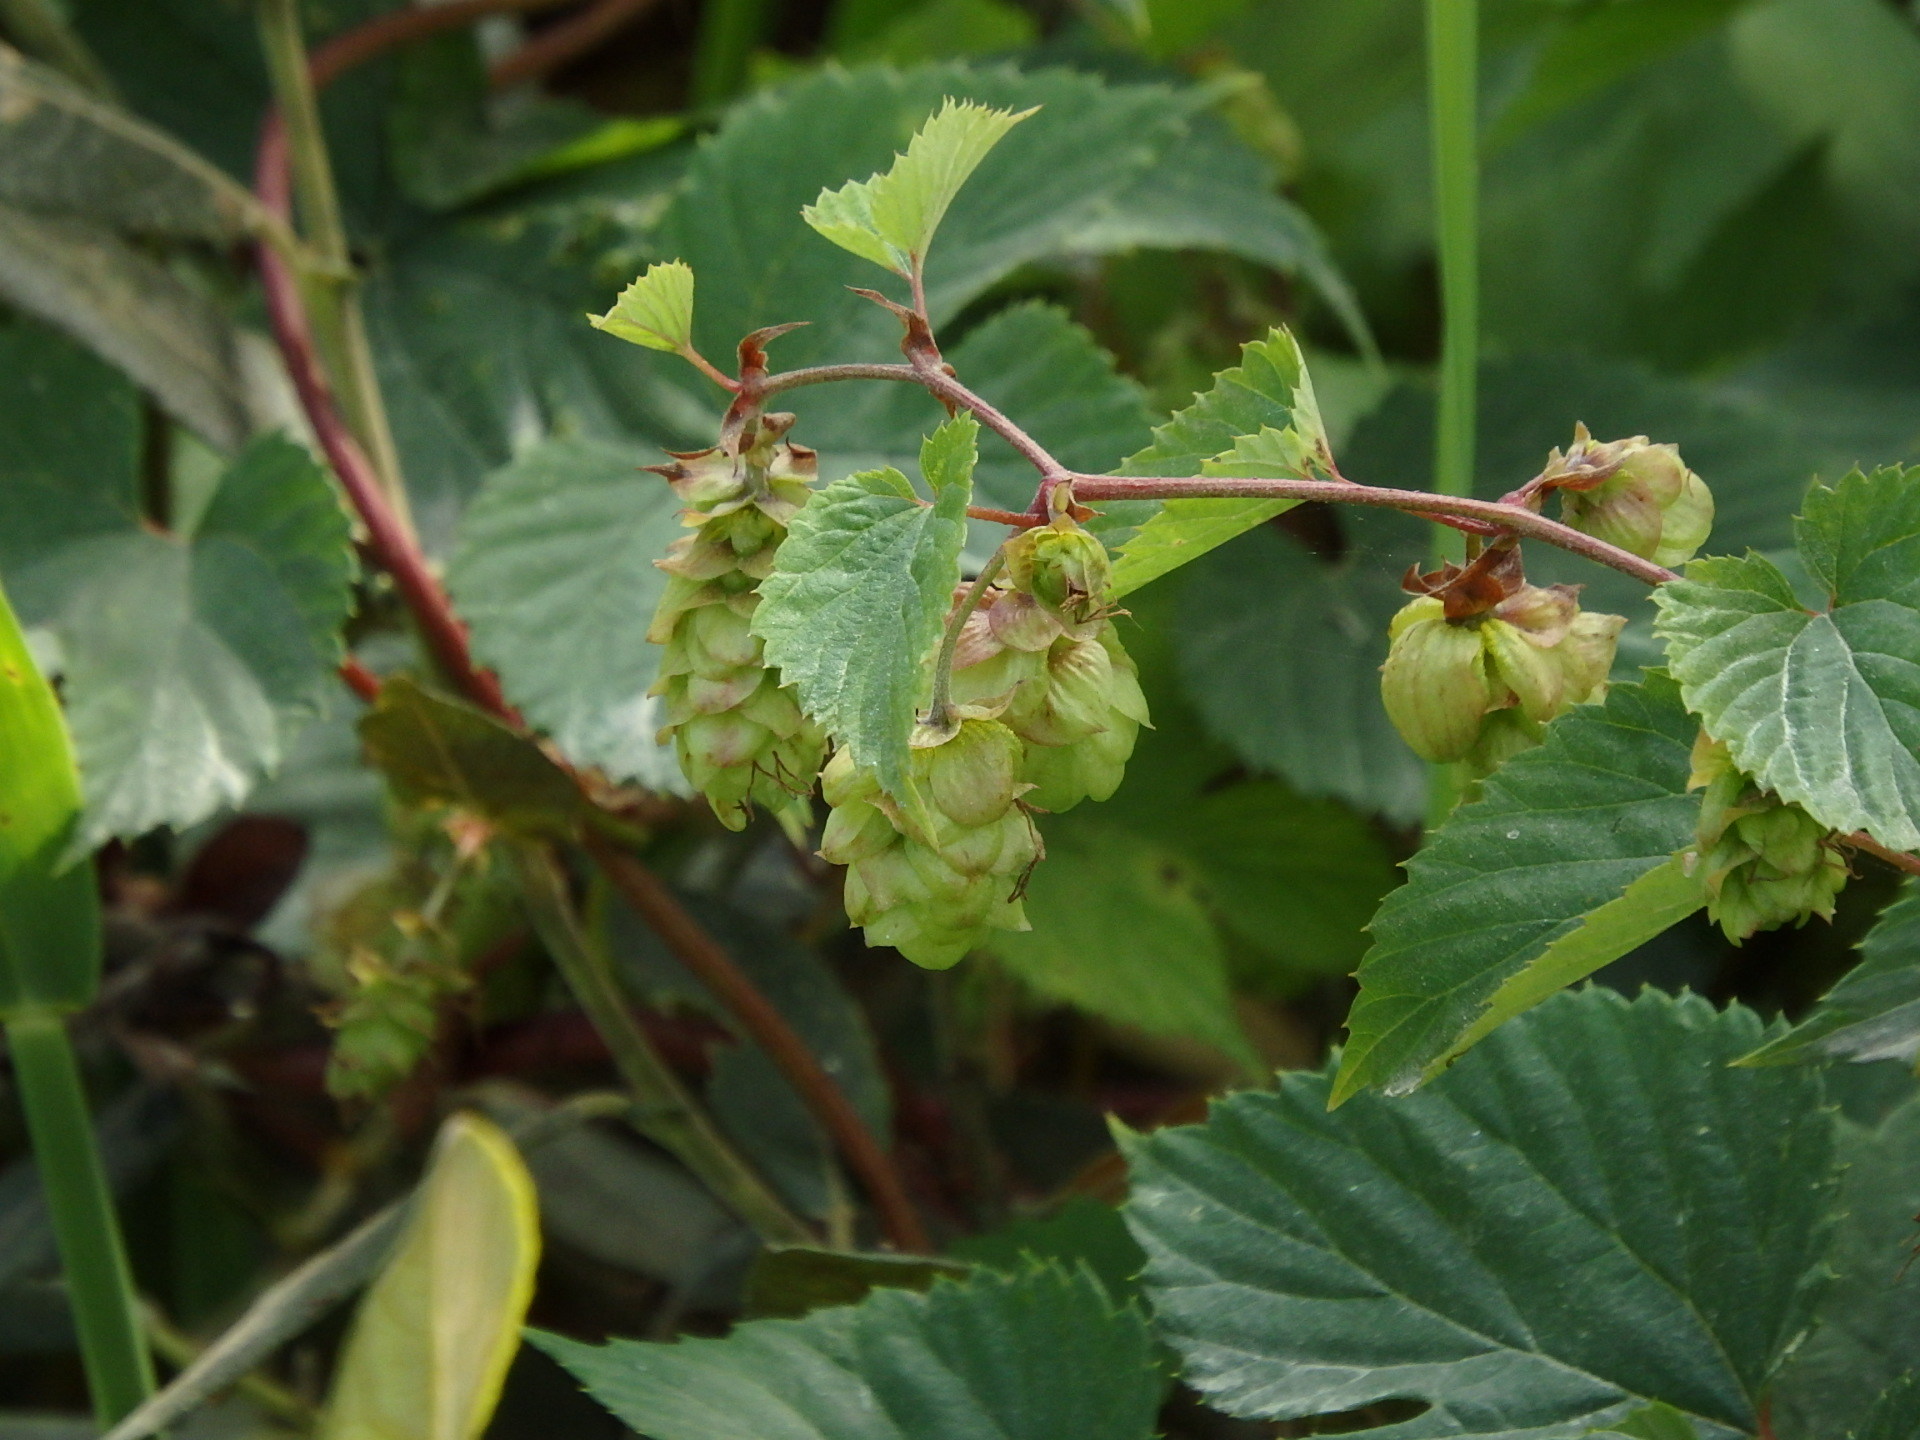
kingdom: Plantae
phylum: Tracheophyta
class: Magnoliopsida
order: Rosales
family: Cannabaceae
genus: Humulus
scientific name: Humulus lupulus
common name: Hop
